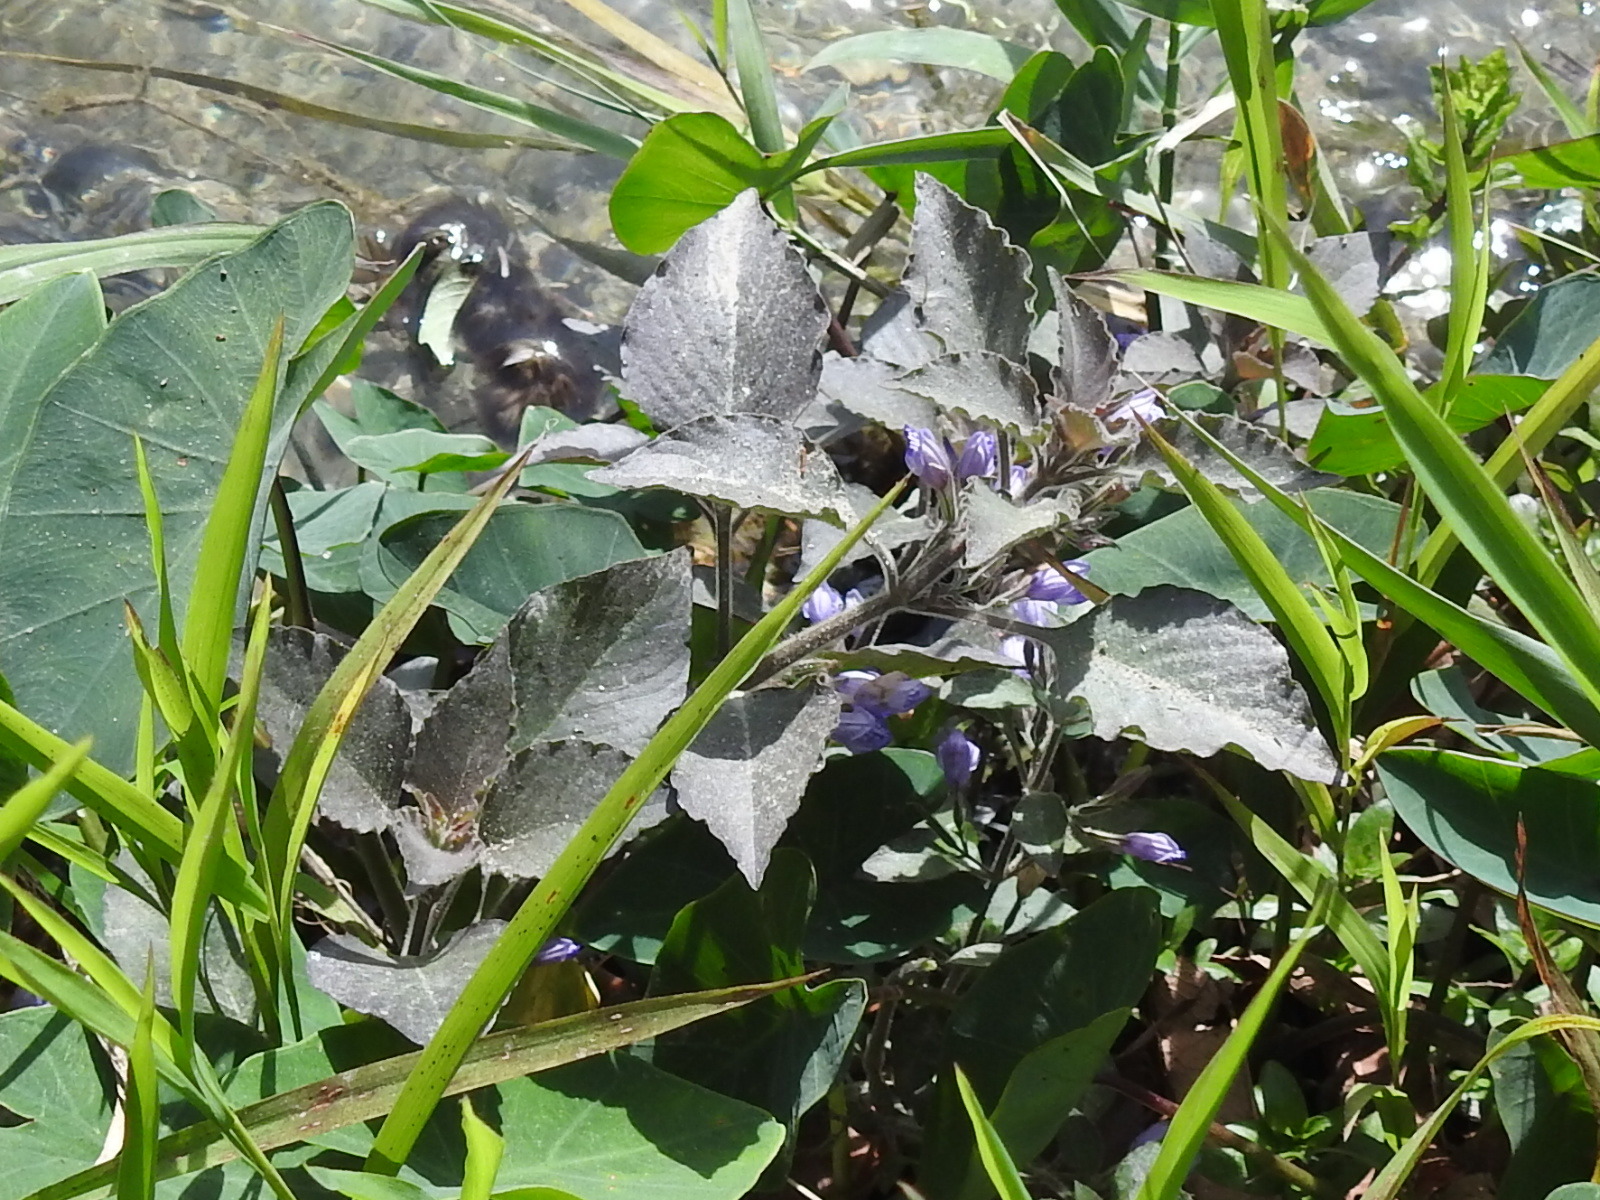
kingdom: Plantae
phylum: Tracheophyta
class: Magnoliopsida
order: Lamiales
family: Acanthaceae
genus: Hygrophila
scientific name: Hygrophila corymbosa
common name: Starhorn
